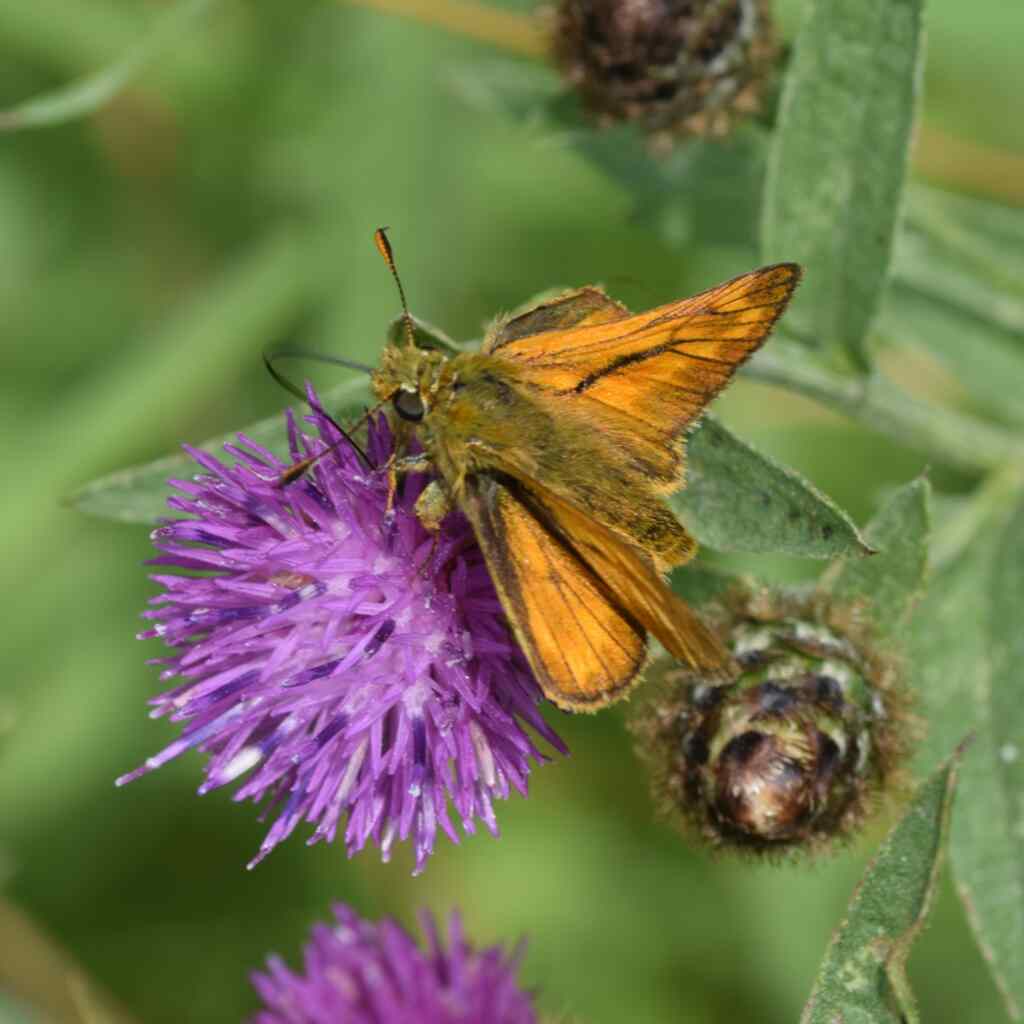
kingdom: Animalia
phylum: Arthropoda
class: Insecta
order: Lepidoptera
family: Hesperiidae
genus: Ochlodes
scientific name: Ochlodes venata
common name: Large skipper
